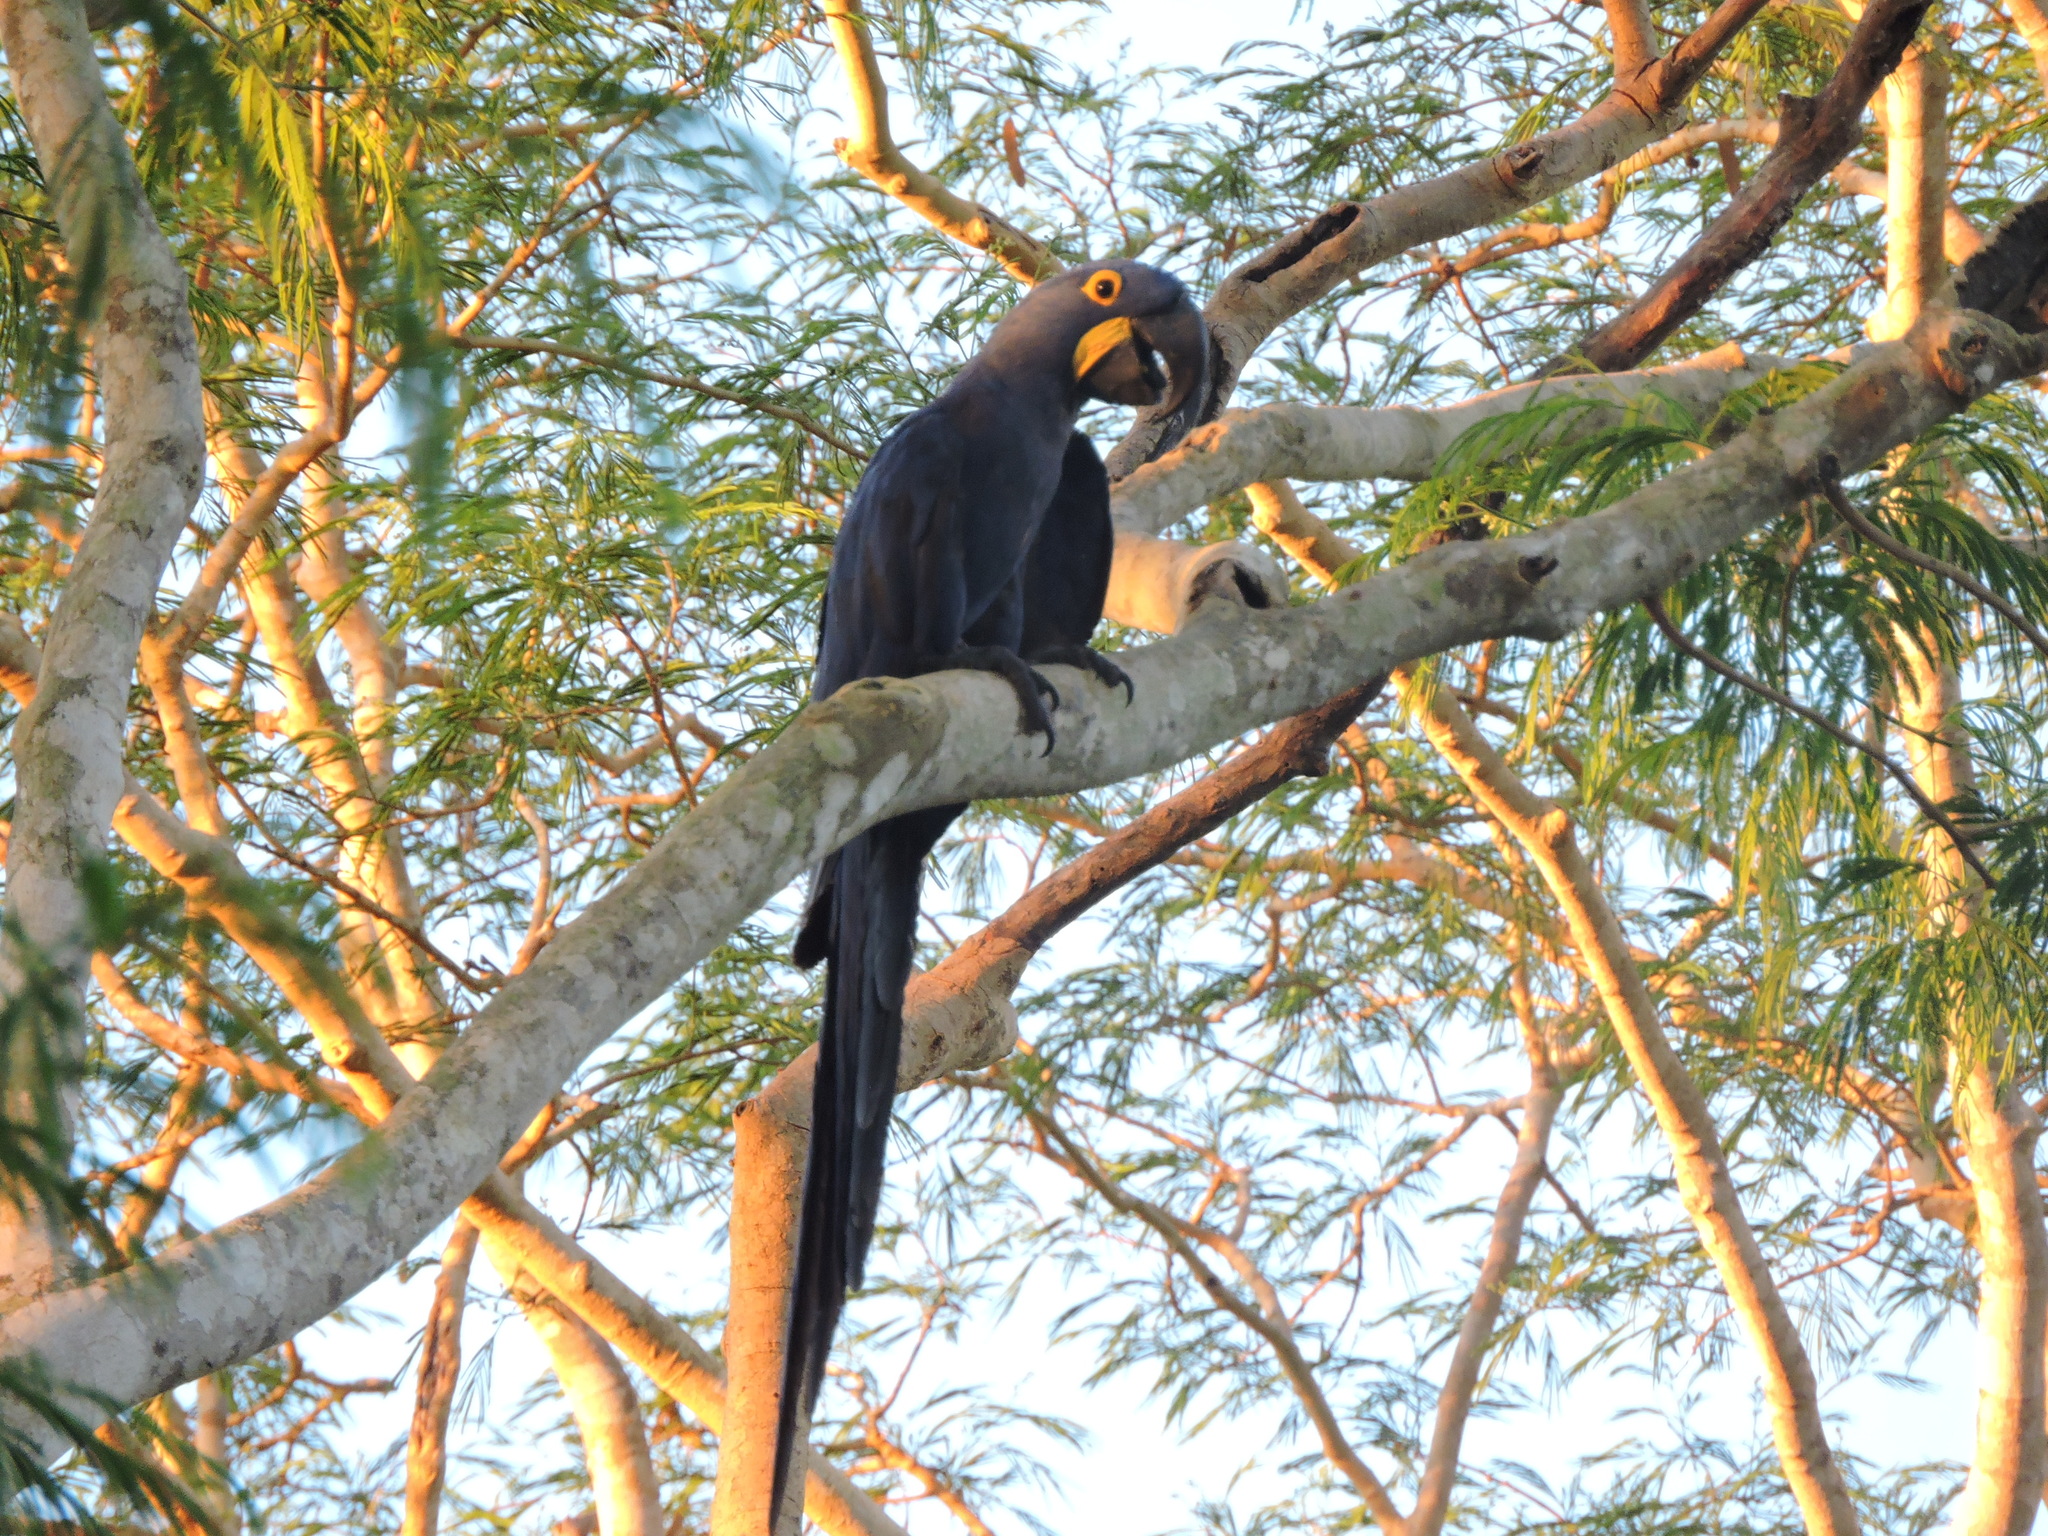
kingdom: Animalia
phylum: Chordata
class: Aves
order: Psittaciformes
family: Psittacidae
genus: Anodorhynchus
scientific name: Anodorhynchus hyacinthinus
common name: Hyacinth macaw
